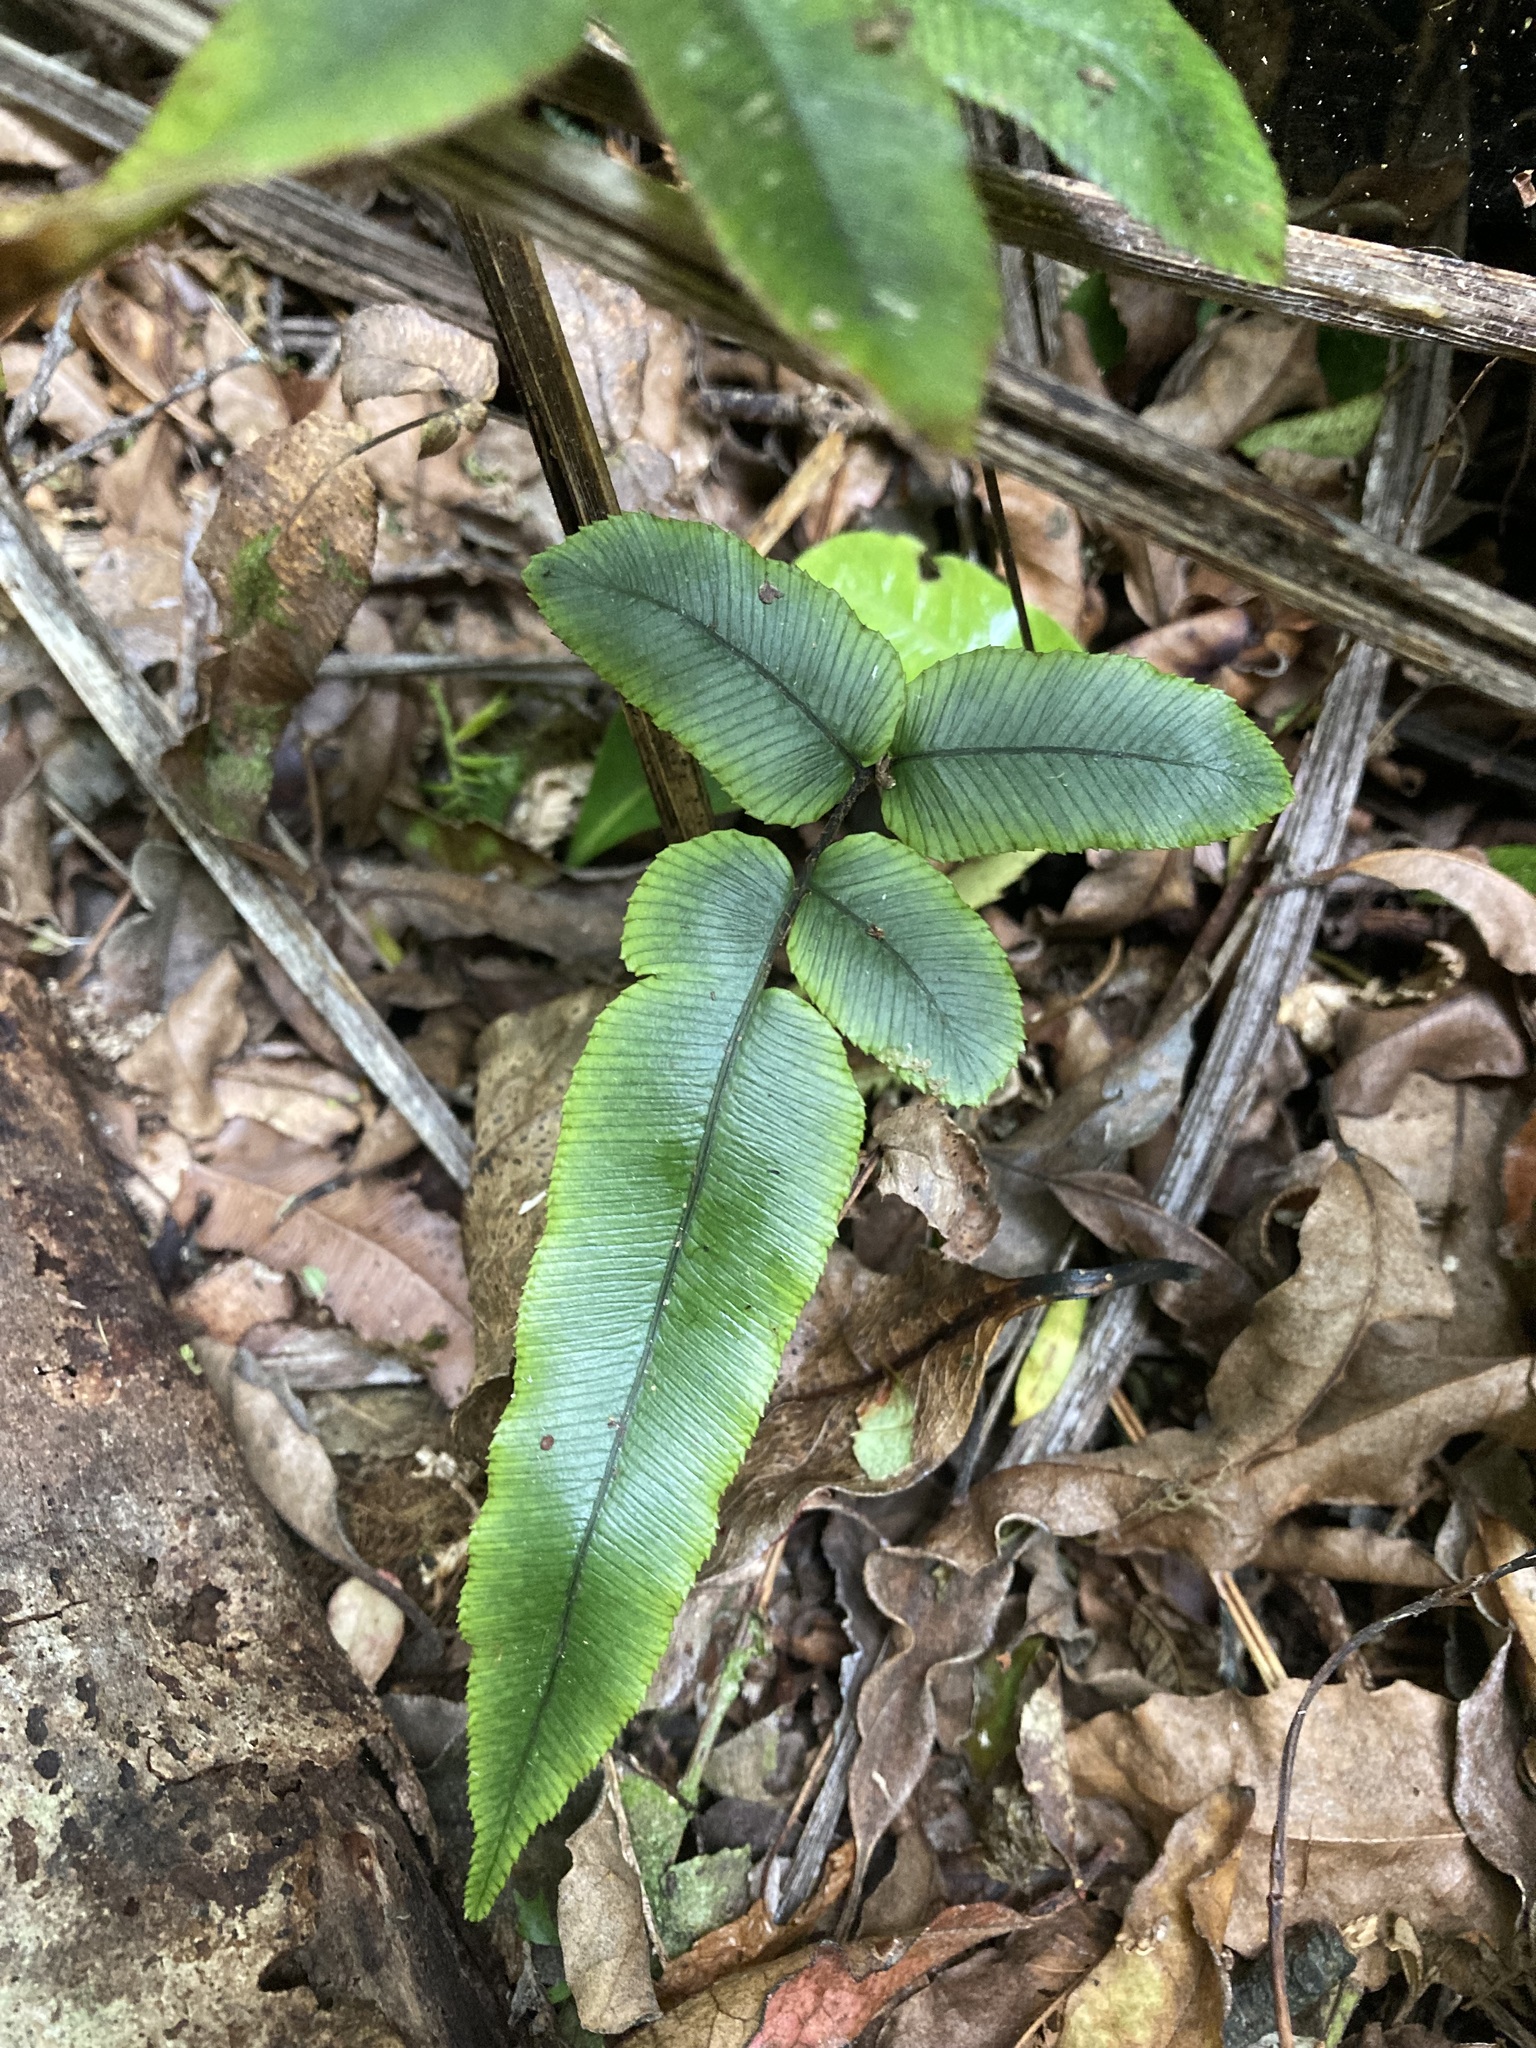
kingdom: Plantae
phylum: Tracheophyta
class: Polypodiopsida
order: Polypodiales
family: Blechnaceae
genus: Parablechnum
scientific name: Parablechnum procerum
